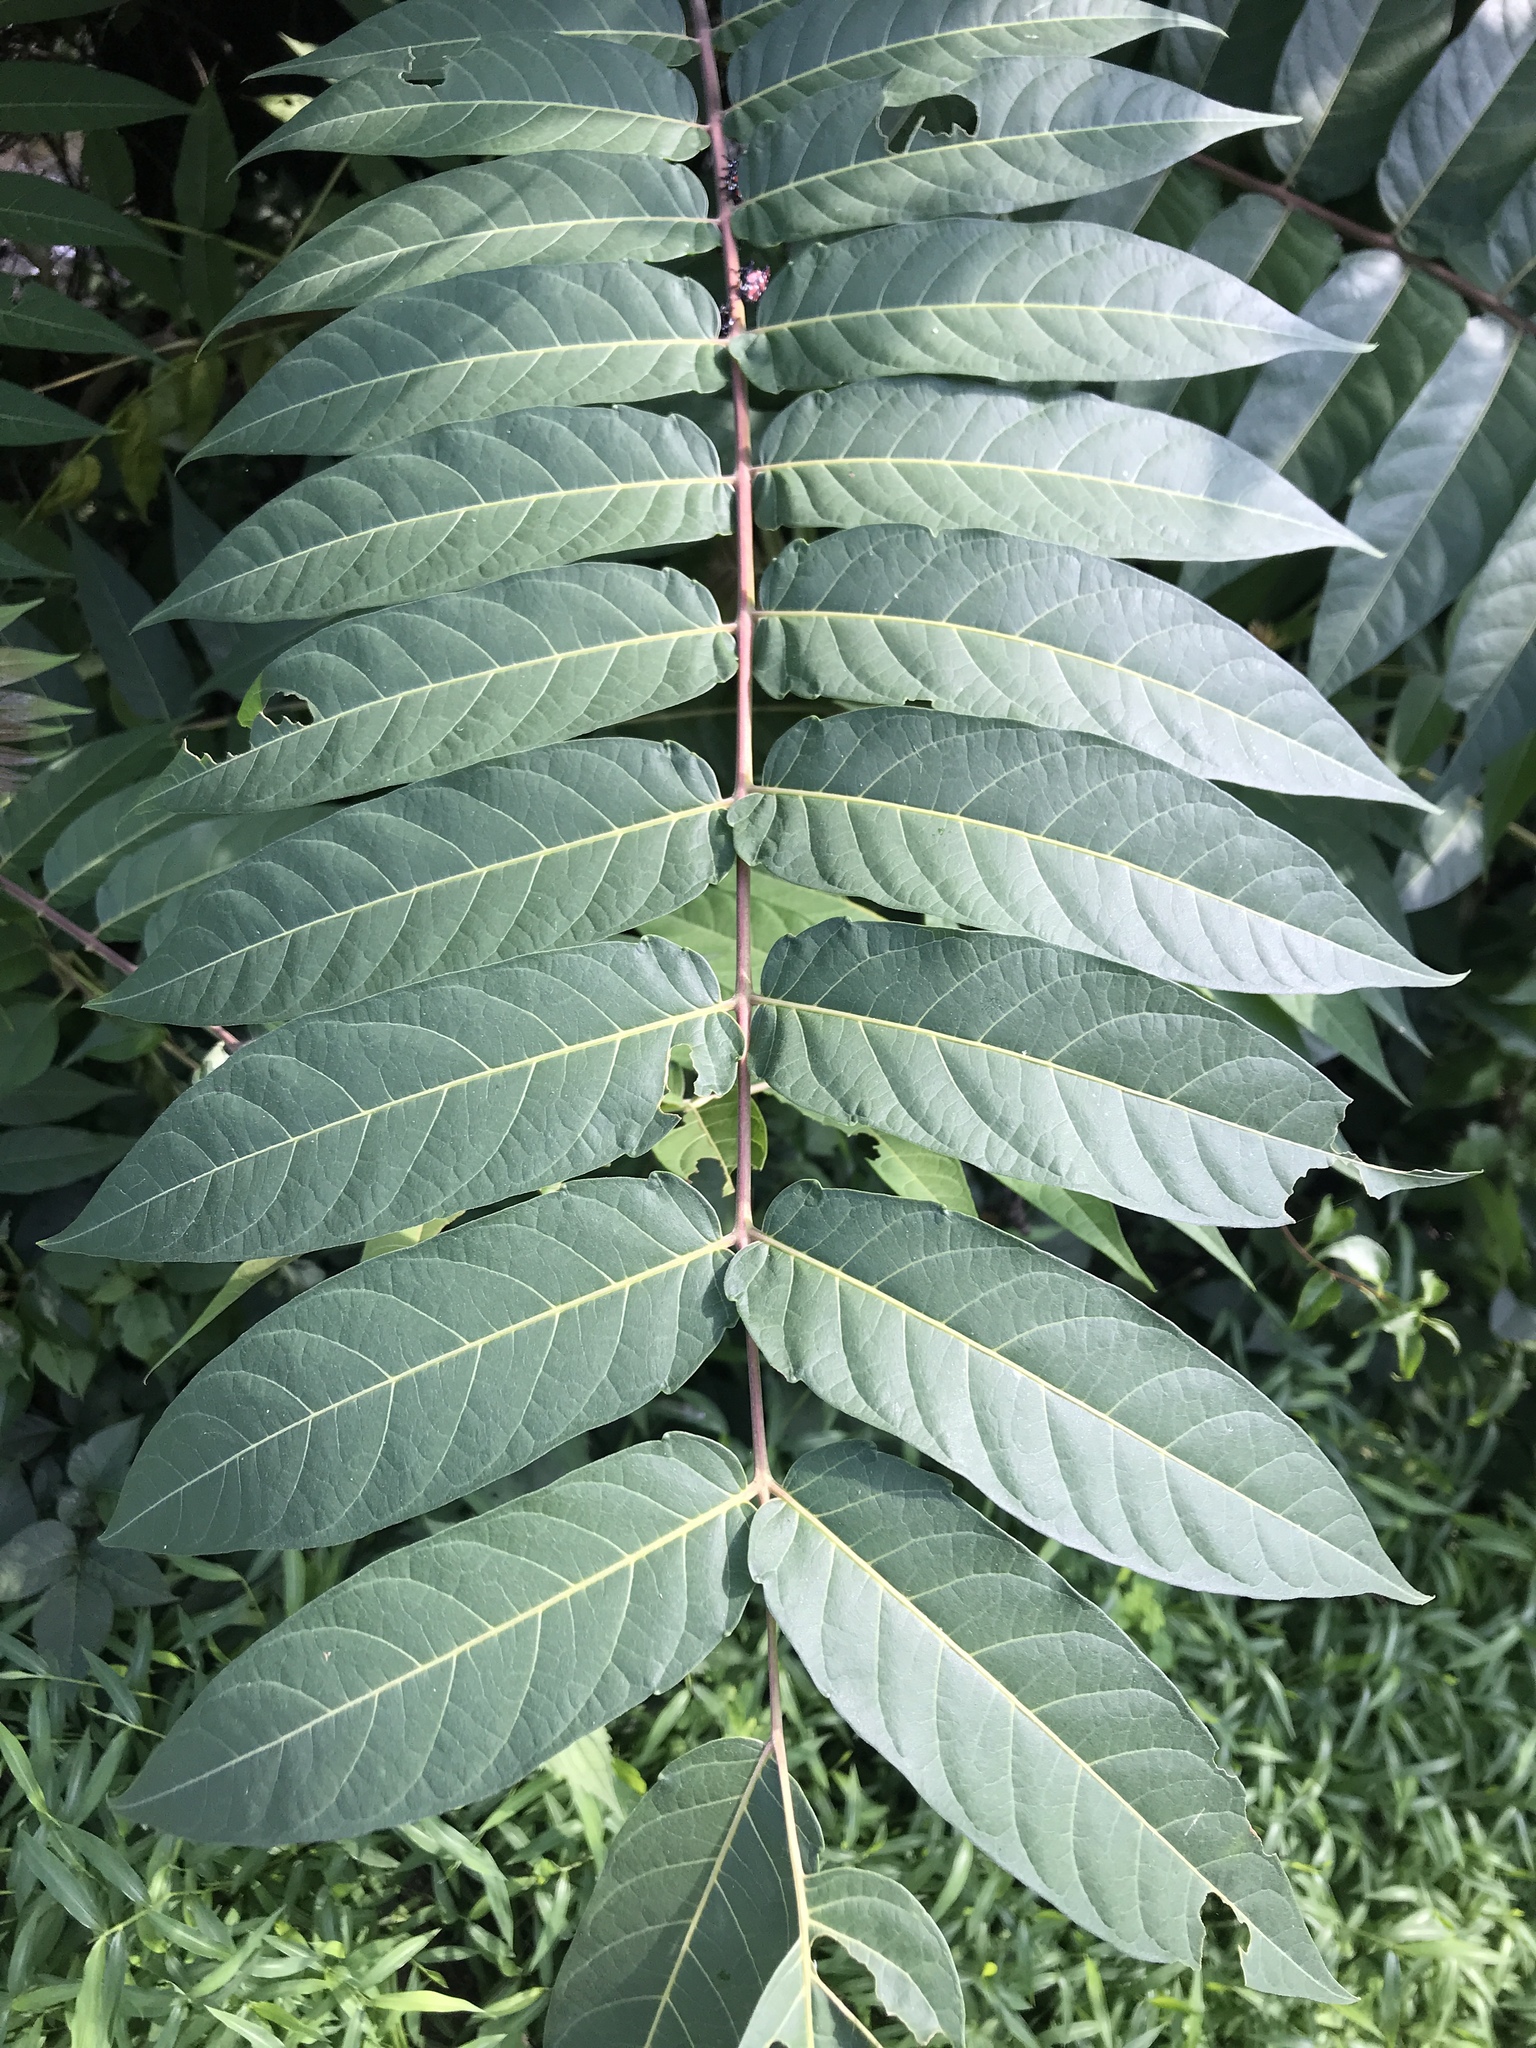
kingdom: Plantae
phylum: Tracheophyta
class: Magnoliopsida
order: Sapindales
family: Simaroubaceae
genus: Ailanthus
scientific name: Ailanthus altissima
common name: Tree-of-heaven
